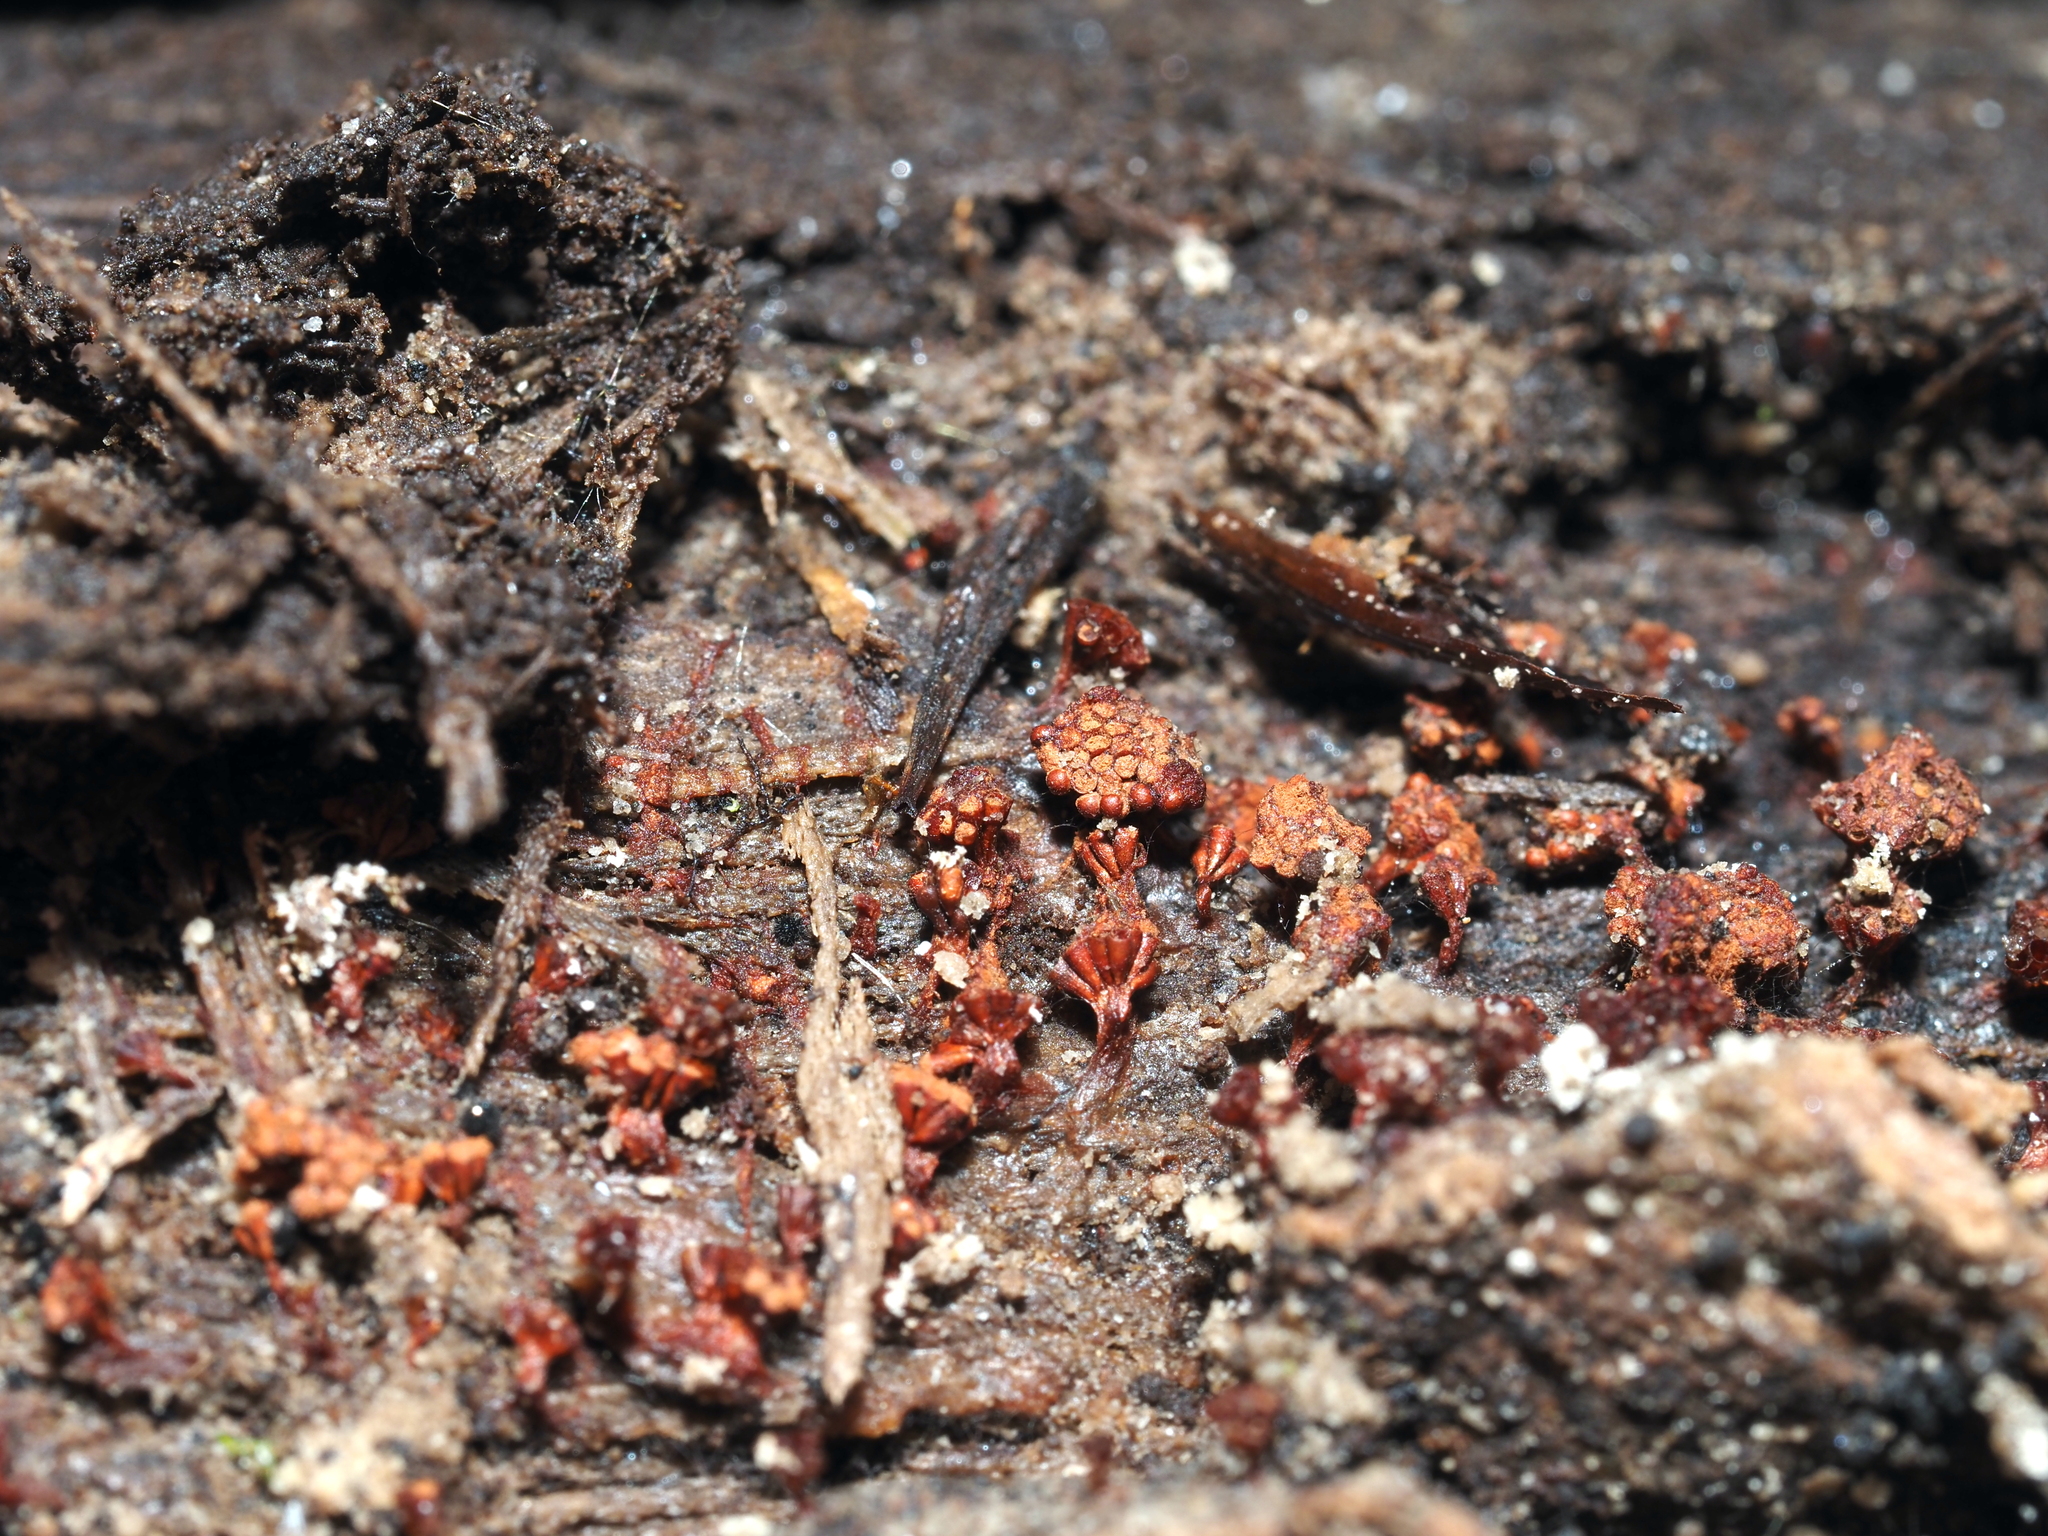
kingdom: Protozoa
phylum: Mycetozoa
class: Myxomycetes
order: Trichiales
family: Trichiaceae
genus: Metatrichia
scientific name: Metatrichia vesparia
